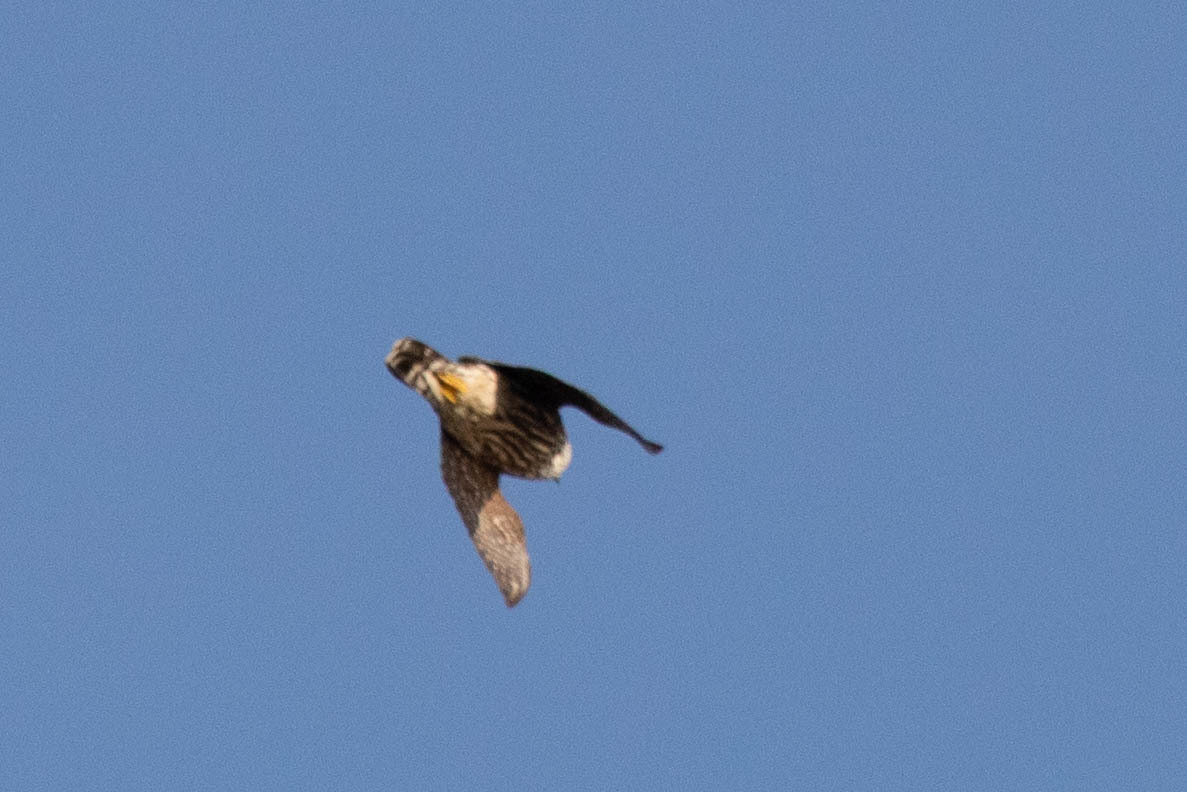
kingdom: Animalia
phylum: Chordata
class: Aves
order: Falconiformes
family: Falconidae
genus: Falco
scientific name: Falco columbarius
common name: Merlin
